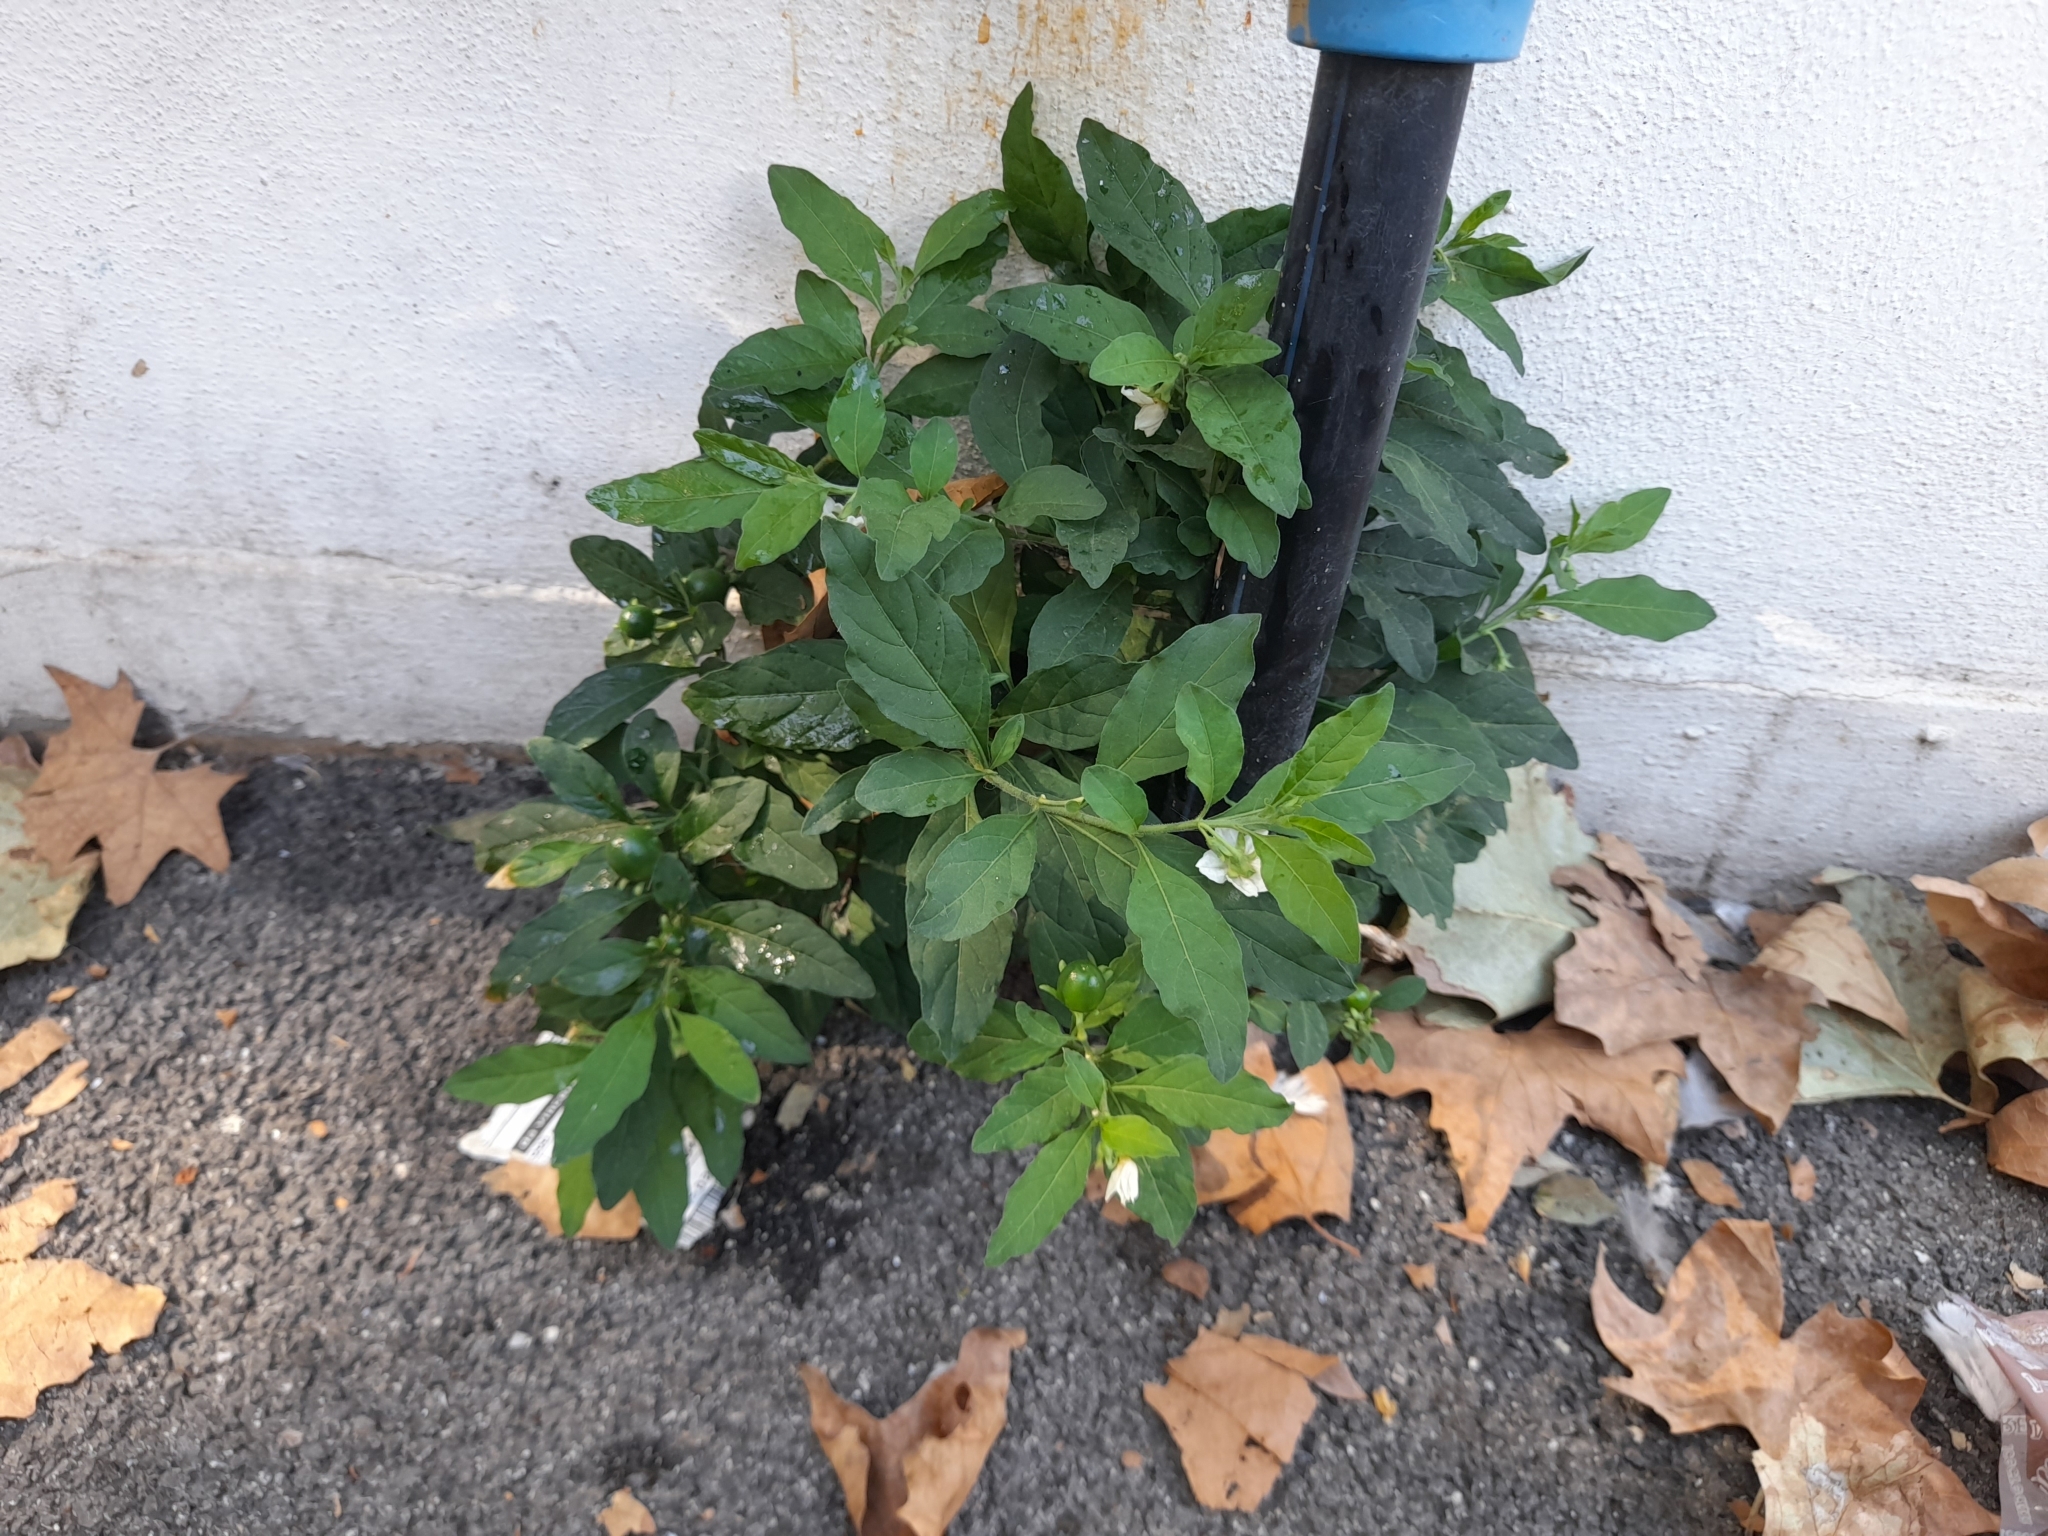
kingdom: Plantae
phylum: Tracheophyta
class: Magnoliopsida
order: Solanales
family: Solanaceae
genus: Solanum
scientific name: Solanum pseudocapsicum
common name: Jerusalem cherry
